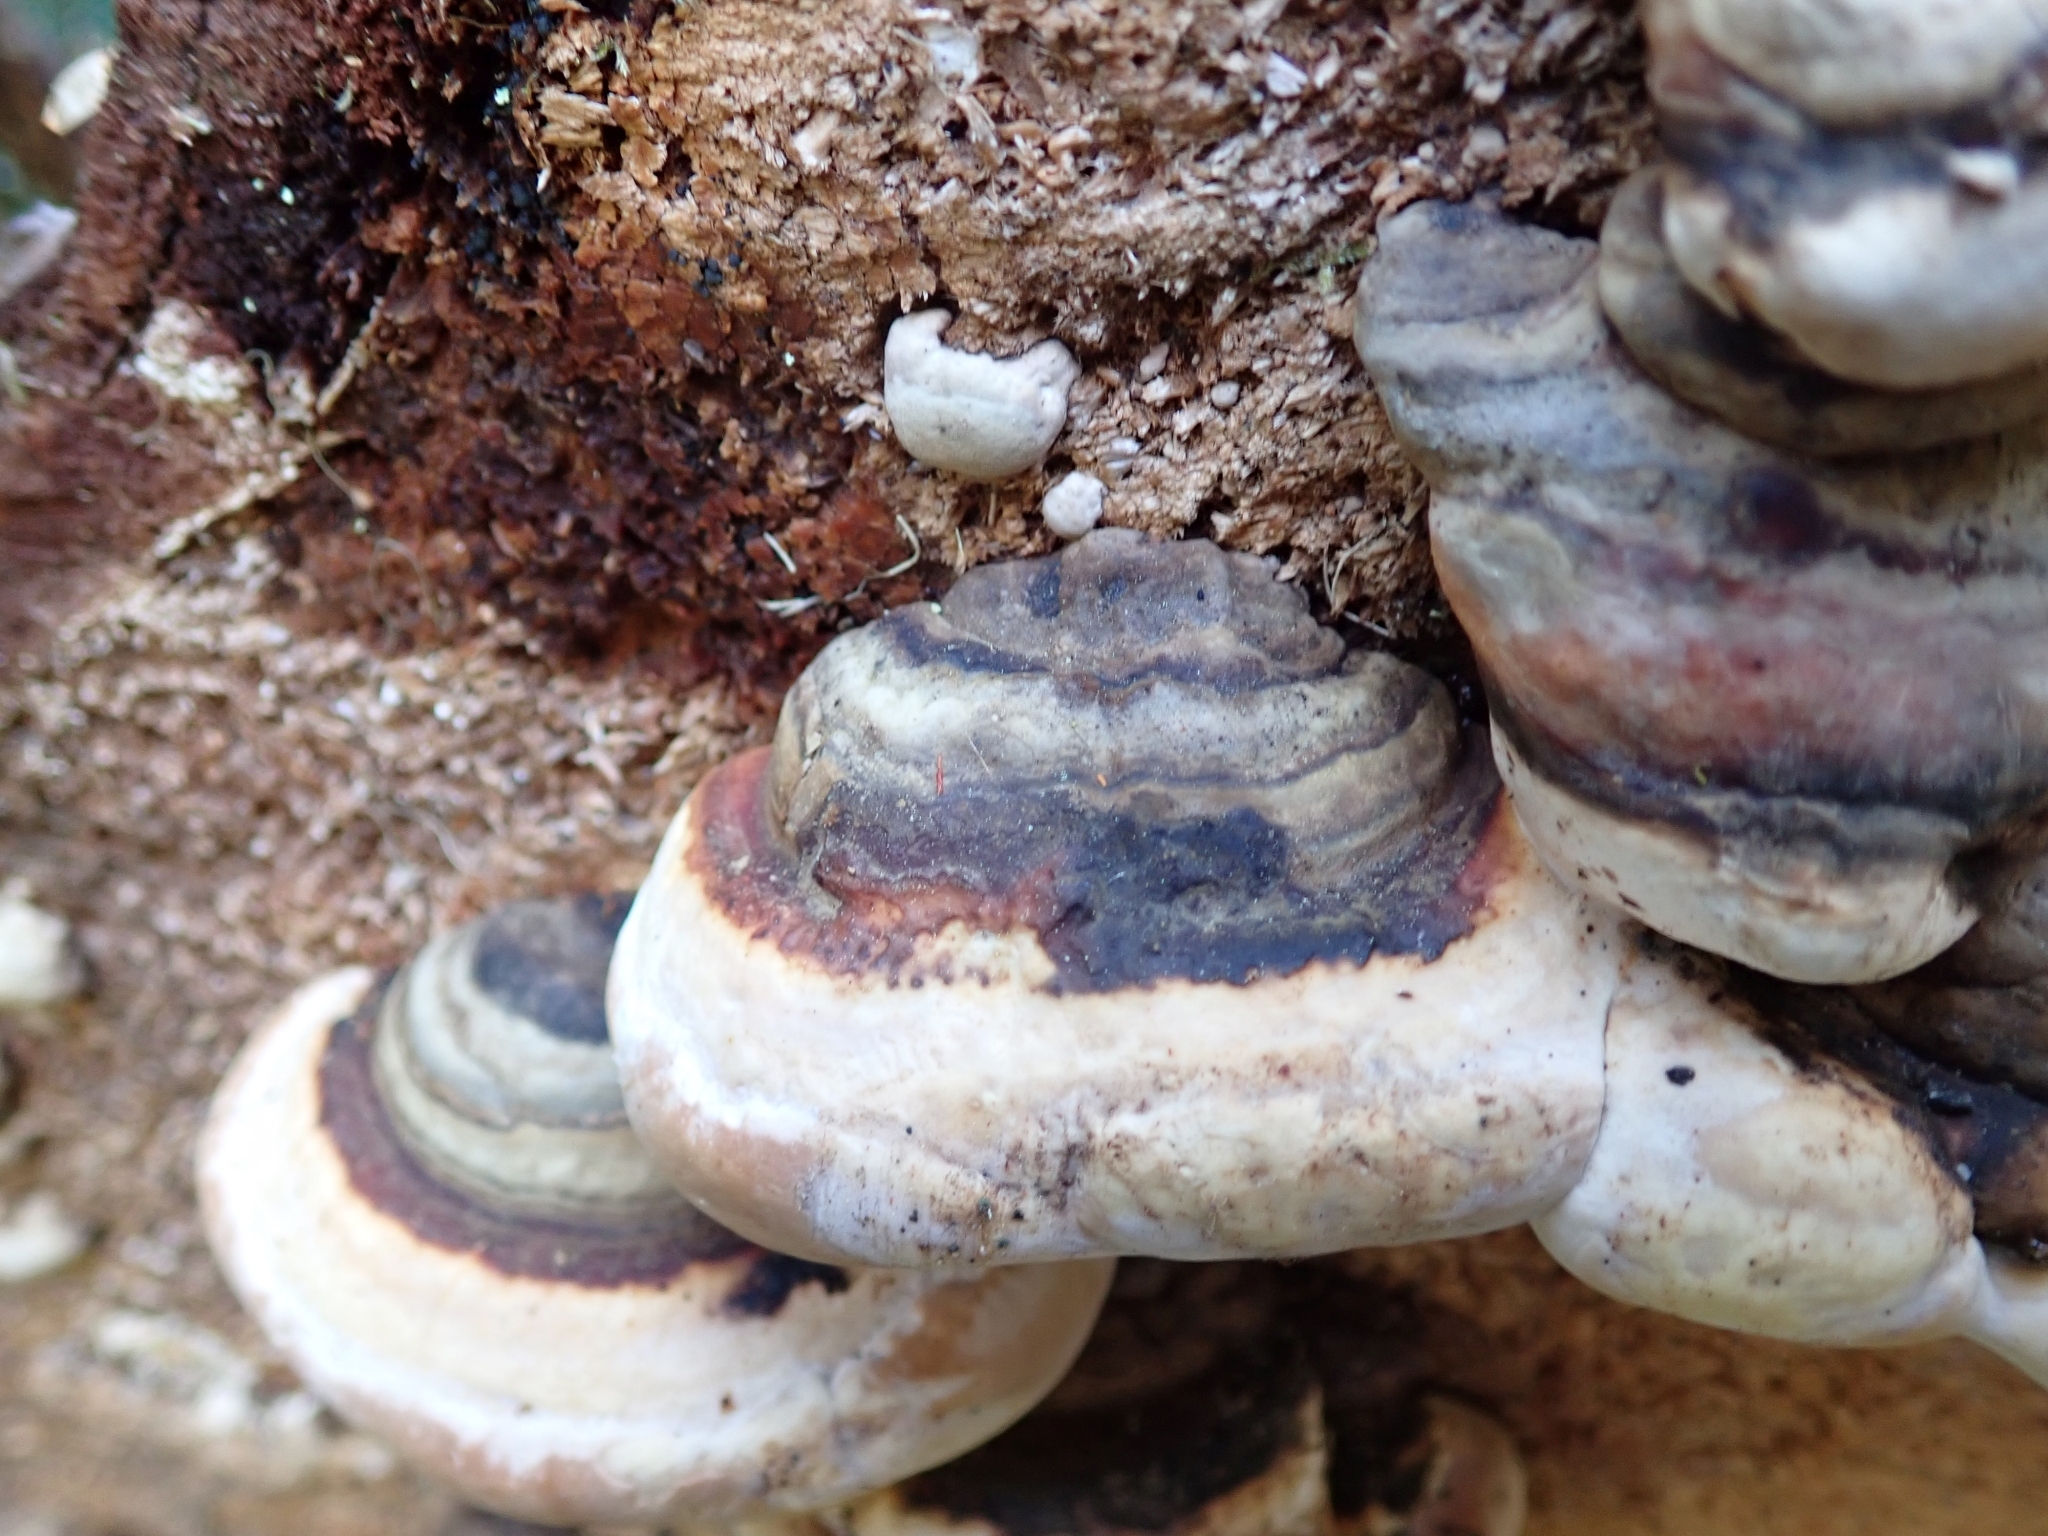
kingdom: Fungi
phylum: Basidiomycota
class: Agaricomycetes
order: Polyporales
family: Fomitopsidaceae
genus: Fomitopsis
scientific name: Fomitopsis mounceae
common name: Northern red belt
